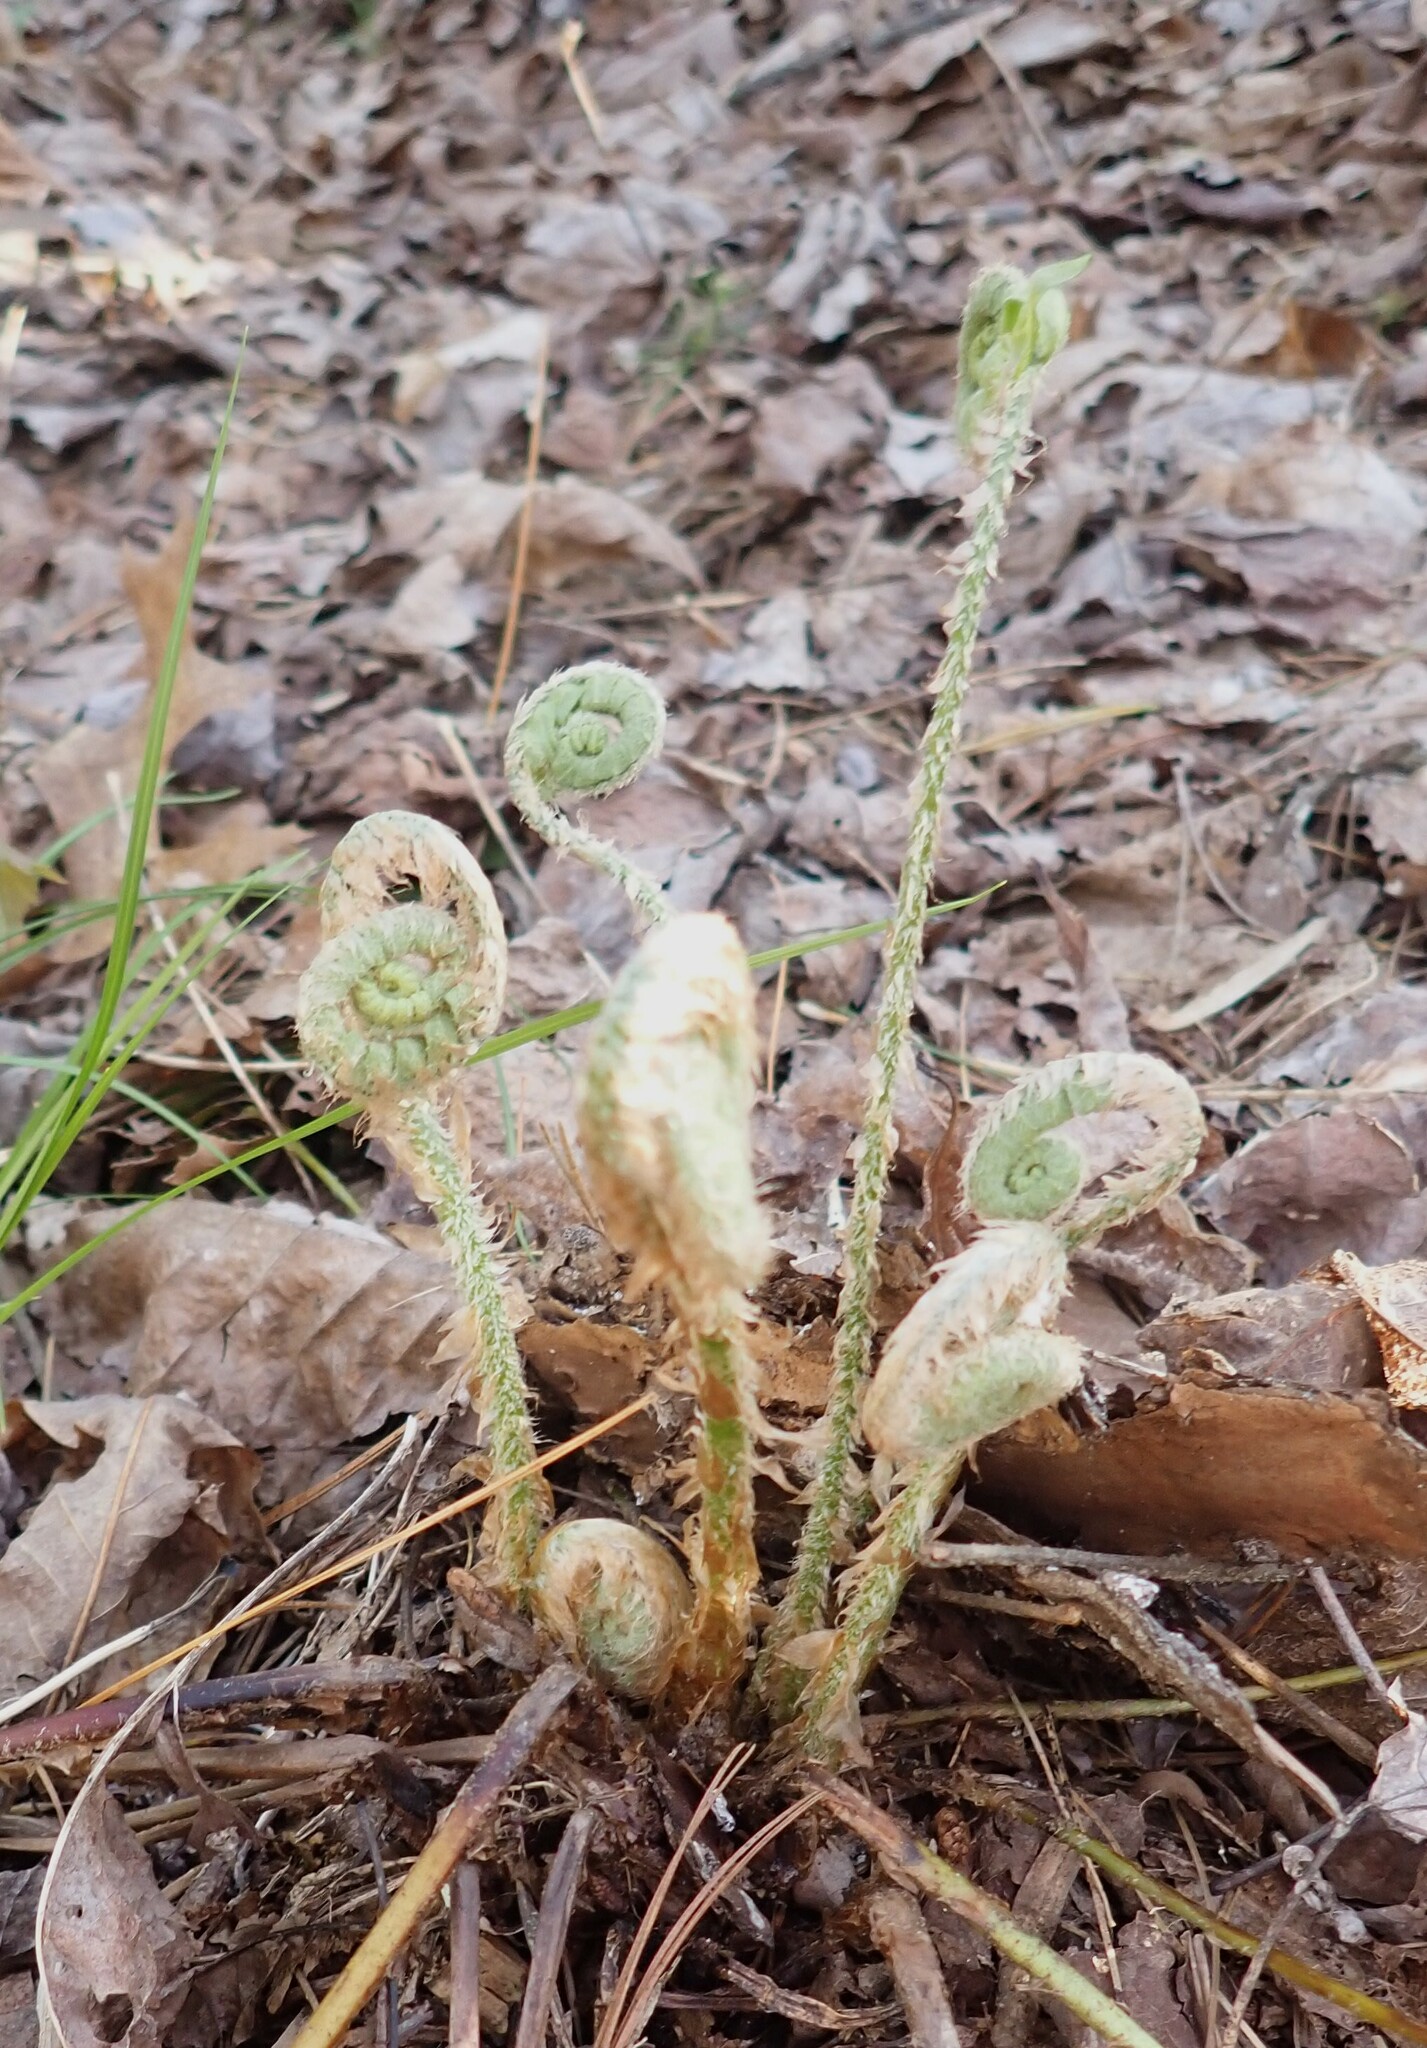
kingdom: Plantae
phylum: Tracheophyta
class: Polypodiopsida
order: Polypodiales
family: Dryopteridaceae
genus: Polystichum
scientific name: Polystichum acrostichoides
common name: Christmas fern
